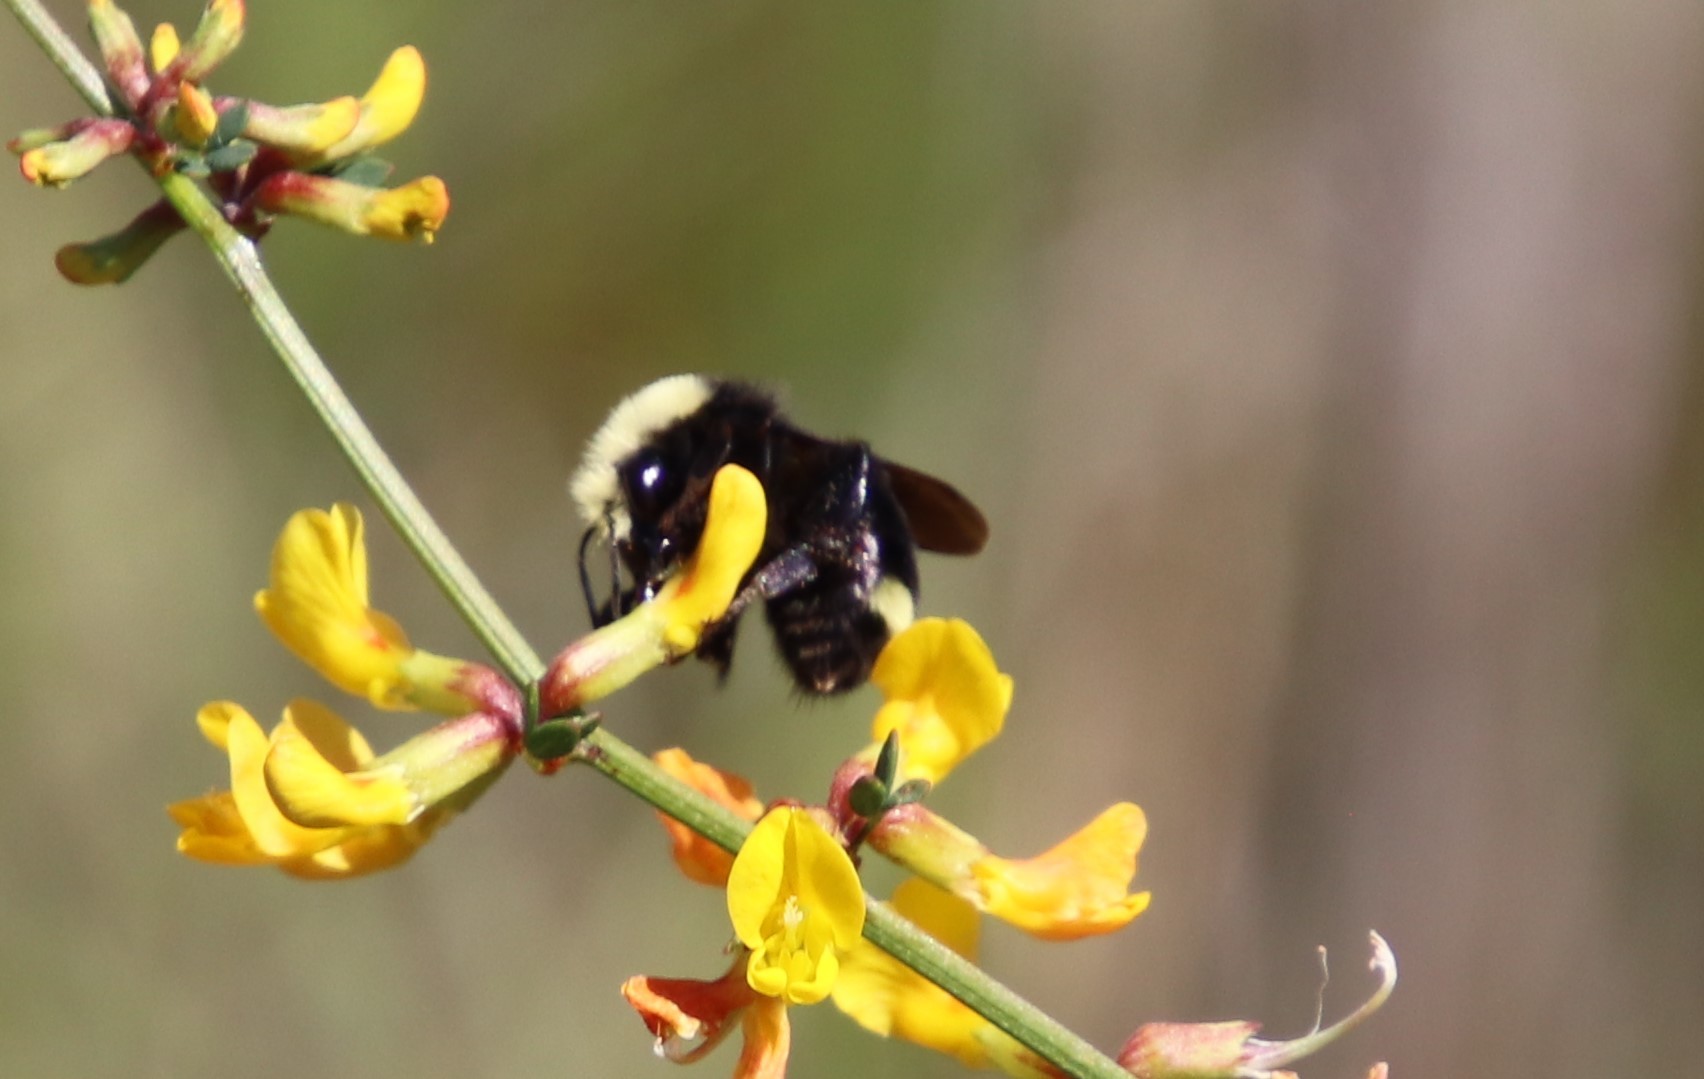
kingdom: Animalia
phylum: Arthropoda
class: Insecta
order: Hymenoptera
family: Apidae
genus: Bombus
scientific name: Bombus vosnesenskii
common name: Vosnesensky bumble bee
